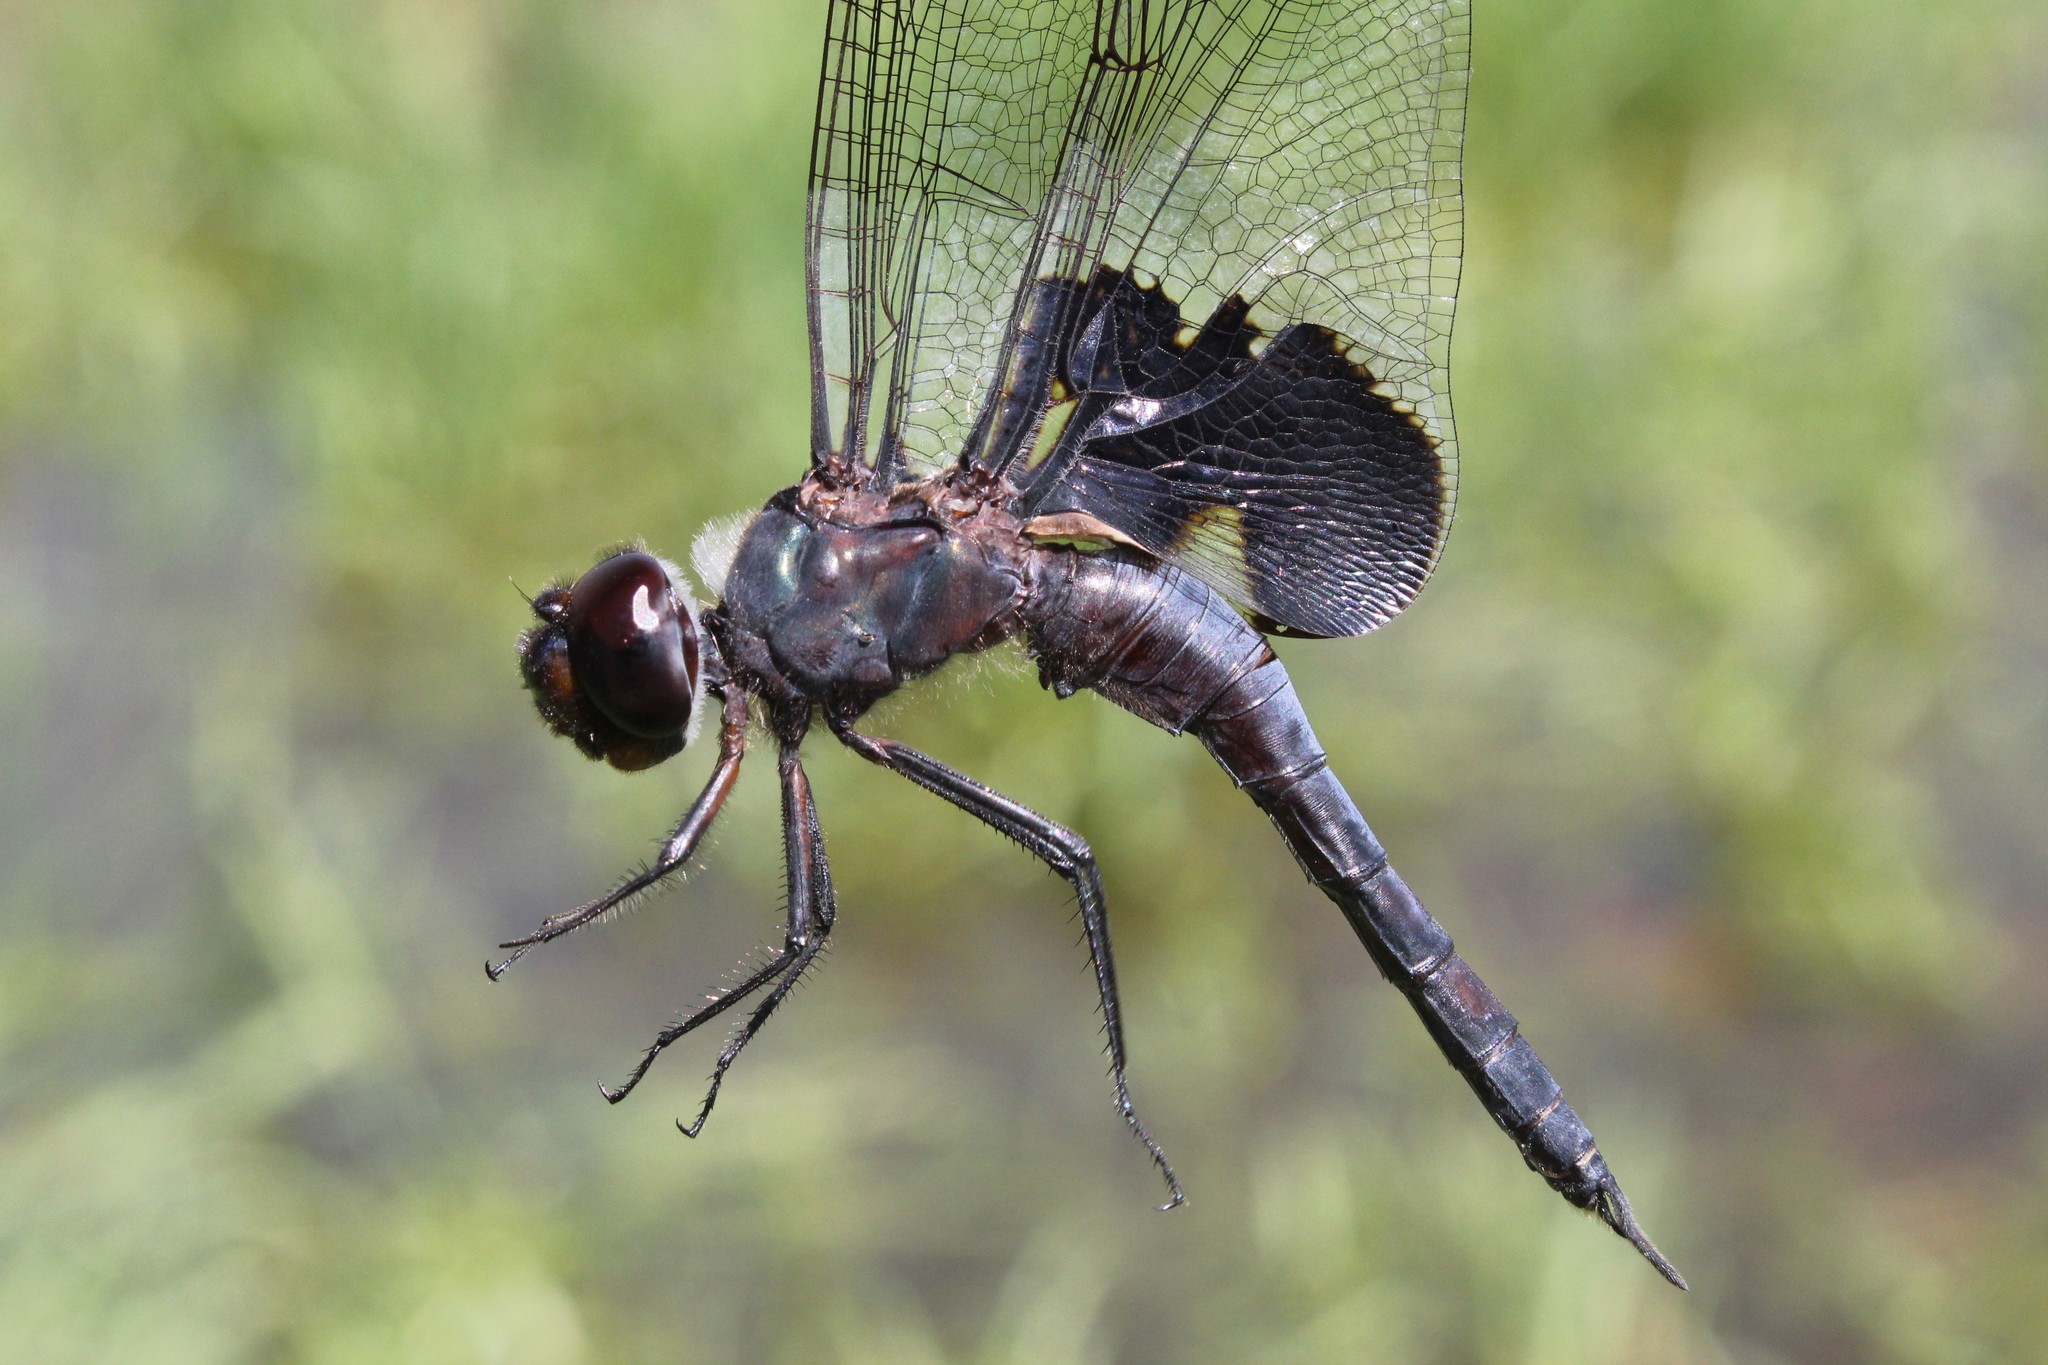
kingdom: Animalia
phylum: Arthropoda
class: Insecta
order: Odonata
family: Libellulidae
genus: Tramea
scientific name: Tramea lacerata
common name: Black saddlebags
